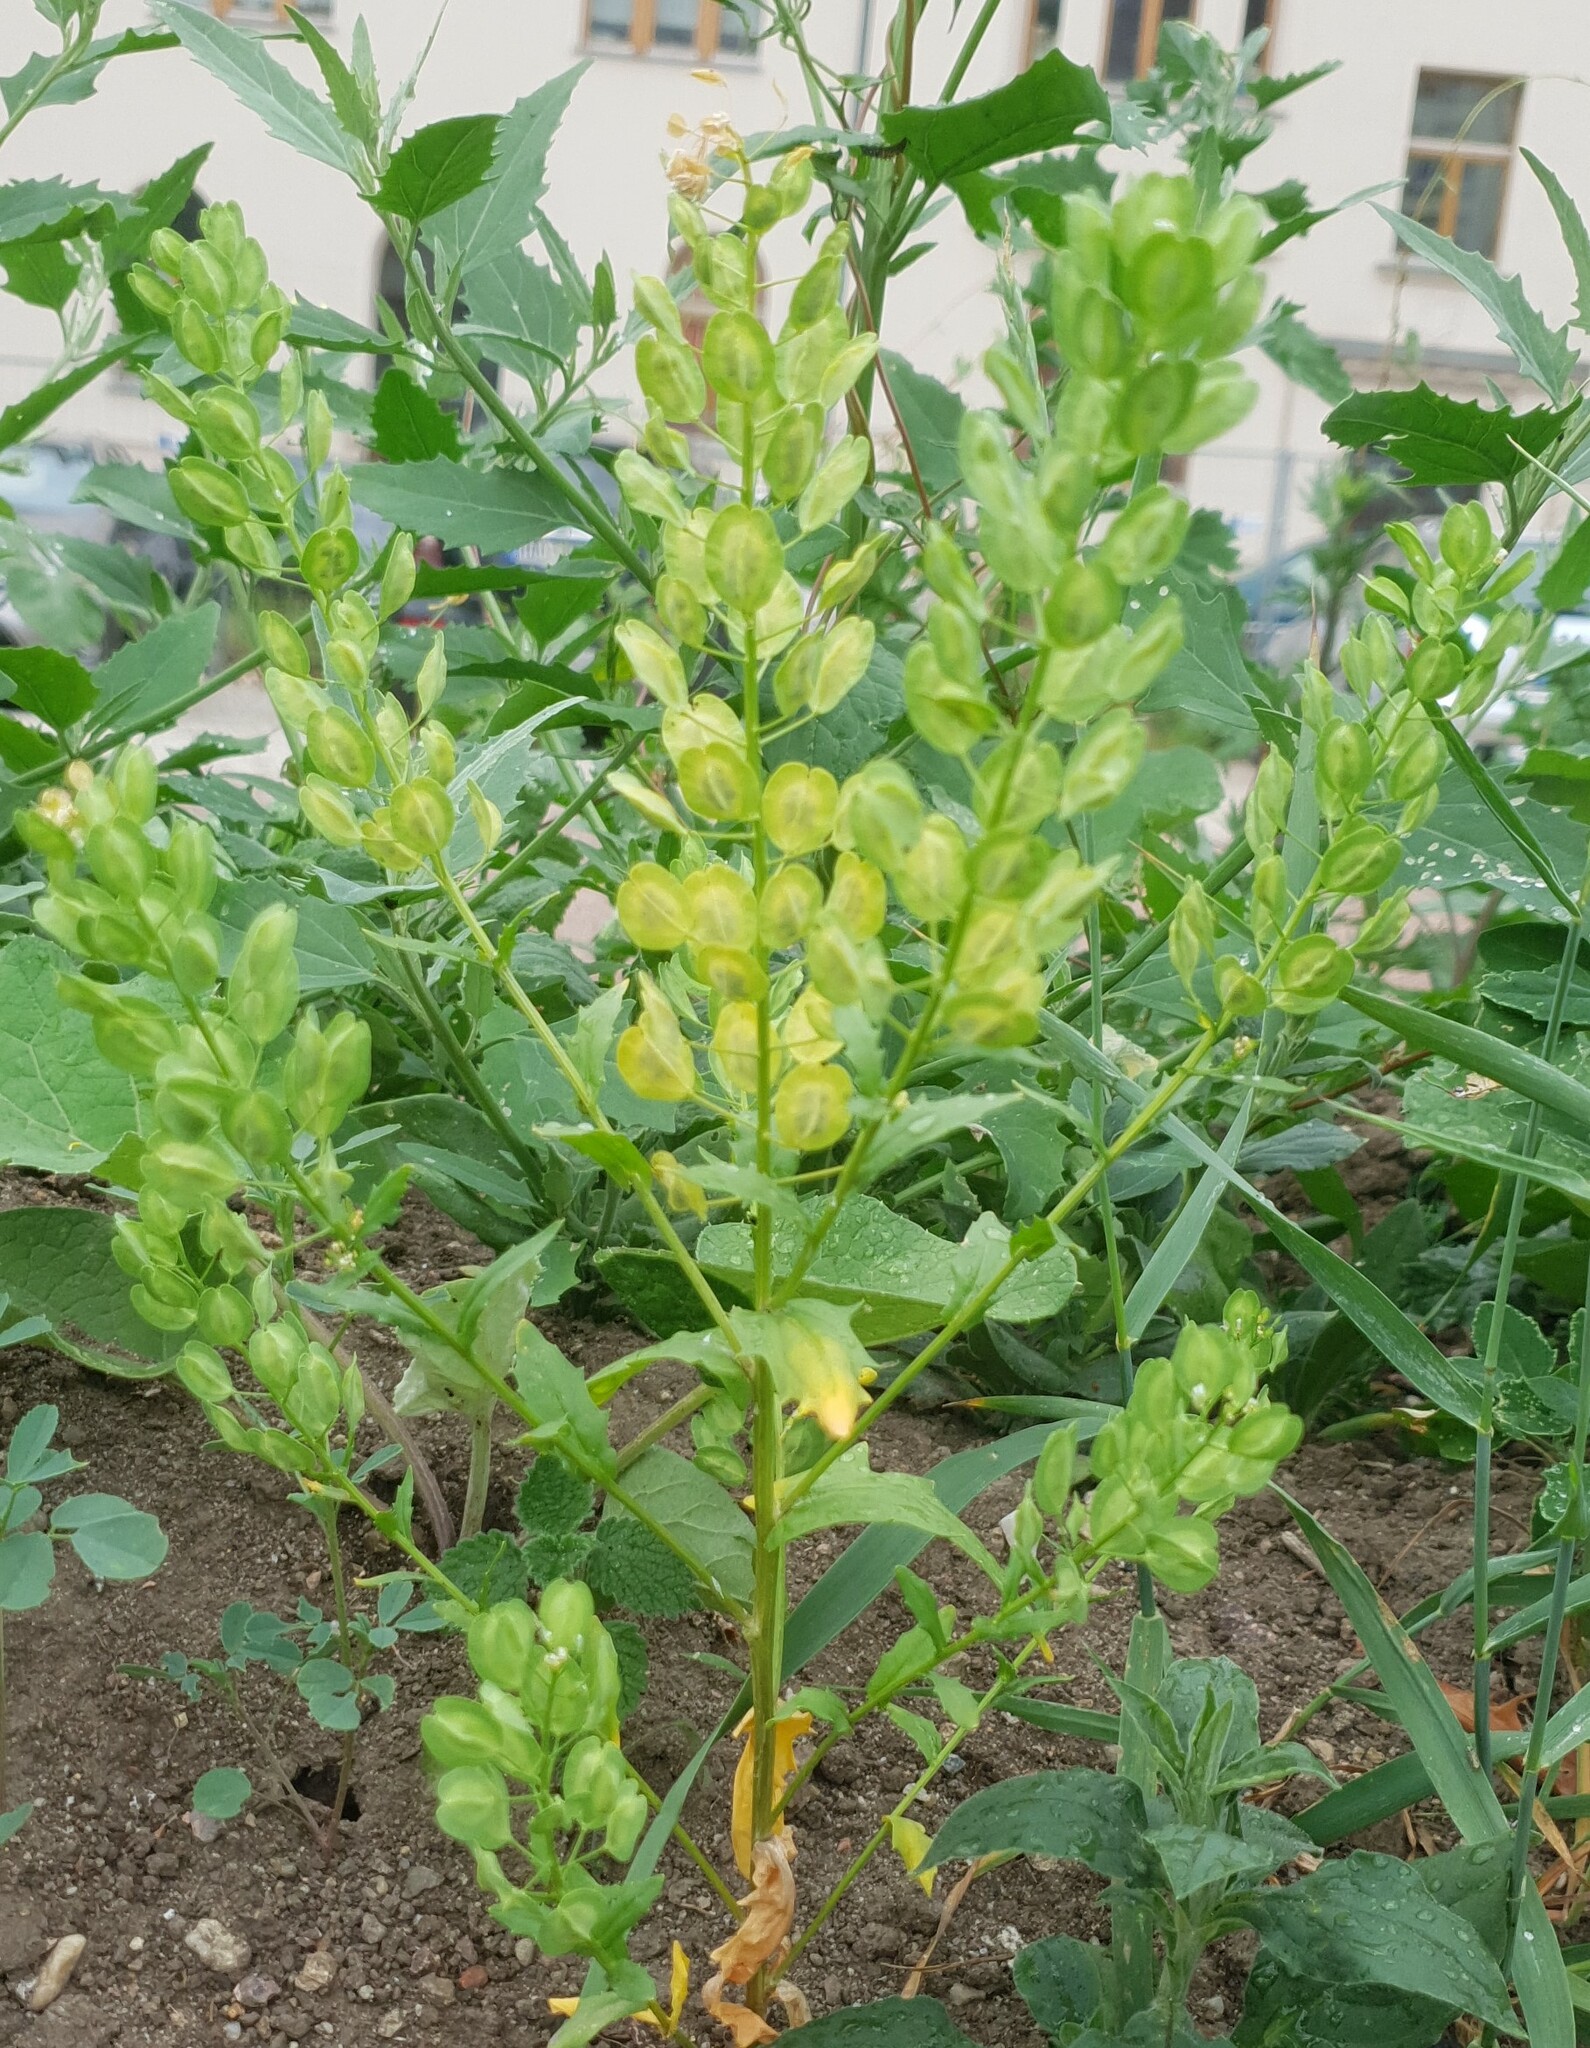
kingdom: Plantae
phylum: Tracheophyta
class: Magnoliopsida
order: Brassicales
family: Brassicaceae
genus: Thlaspi
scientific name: Thlaspi arvense
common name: Field pennycress
